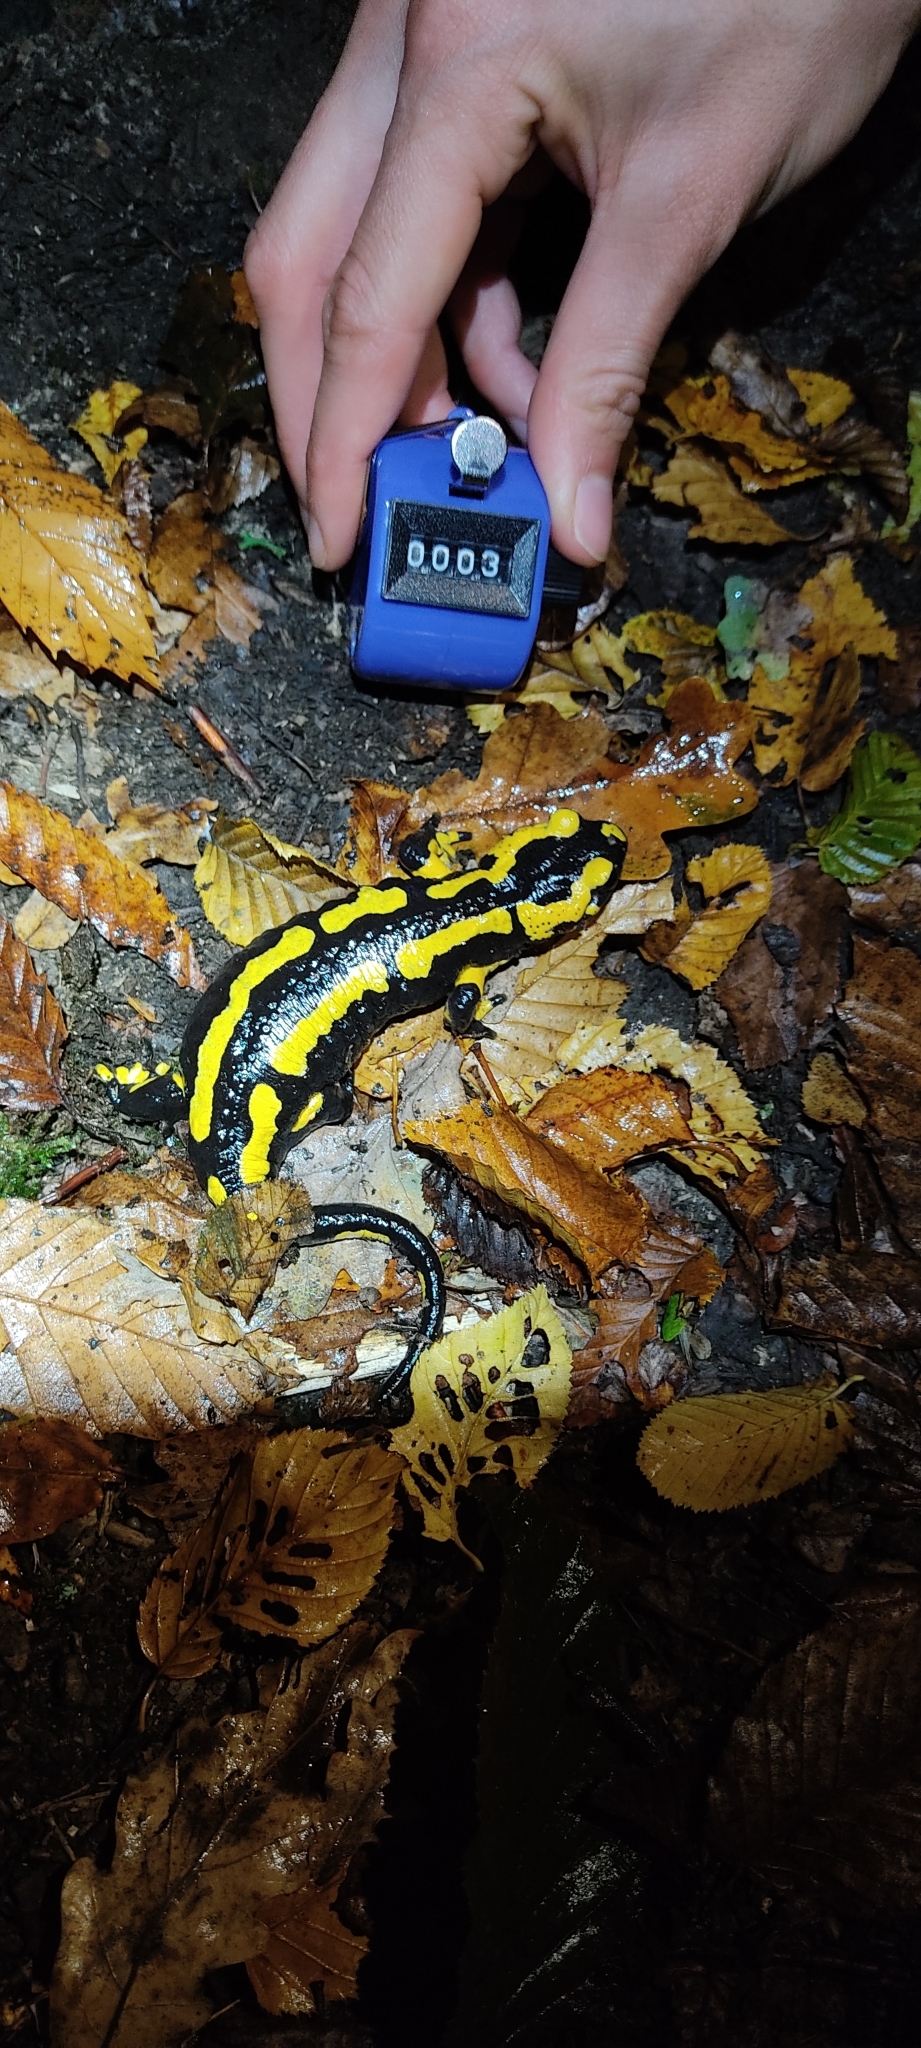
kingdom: Animalia
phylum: Chordata
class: Amphibia
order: Caudata
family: Salamandridae
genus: Salamandra
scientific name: Salamandra salamandra
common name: Fire salamander
